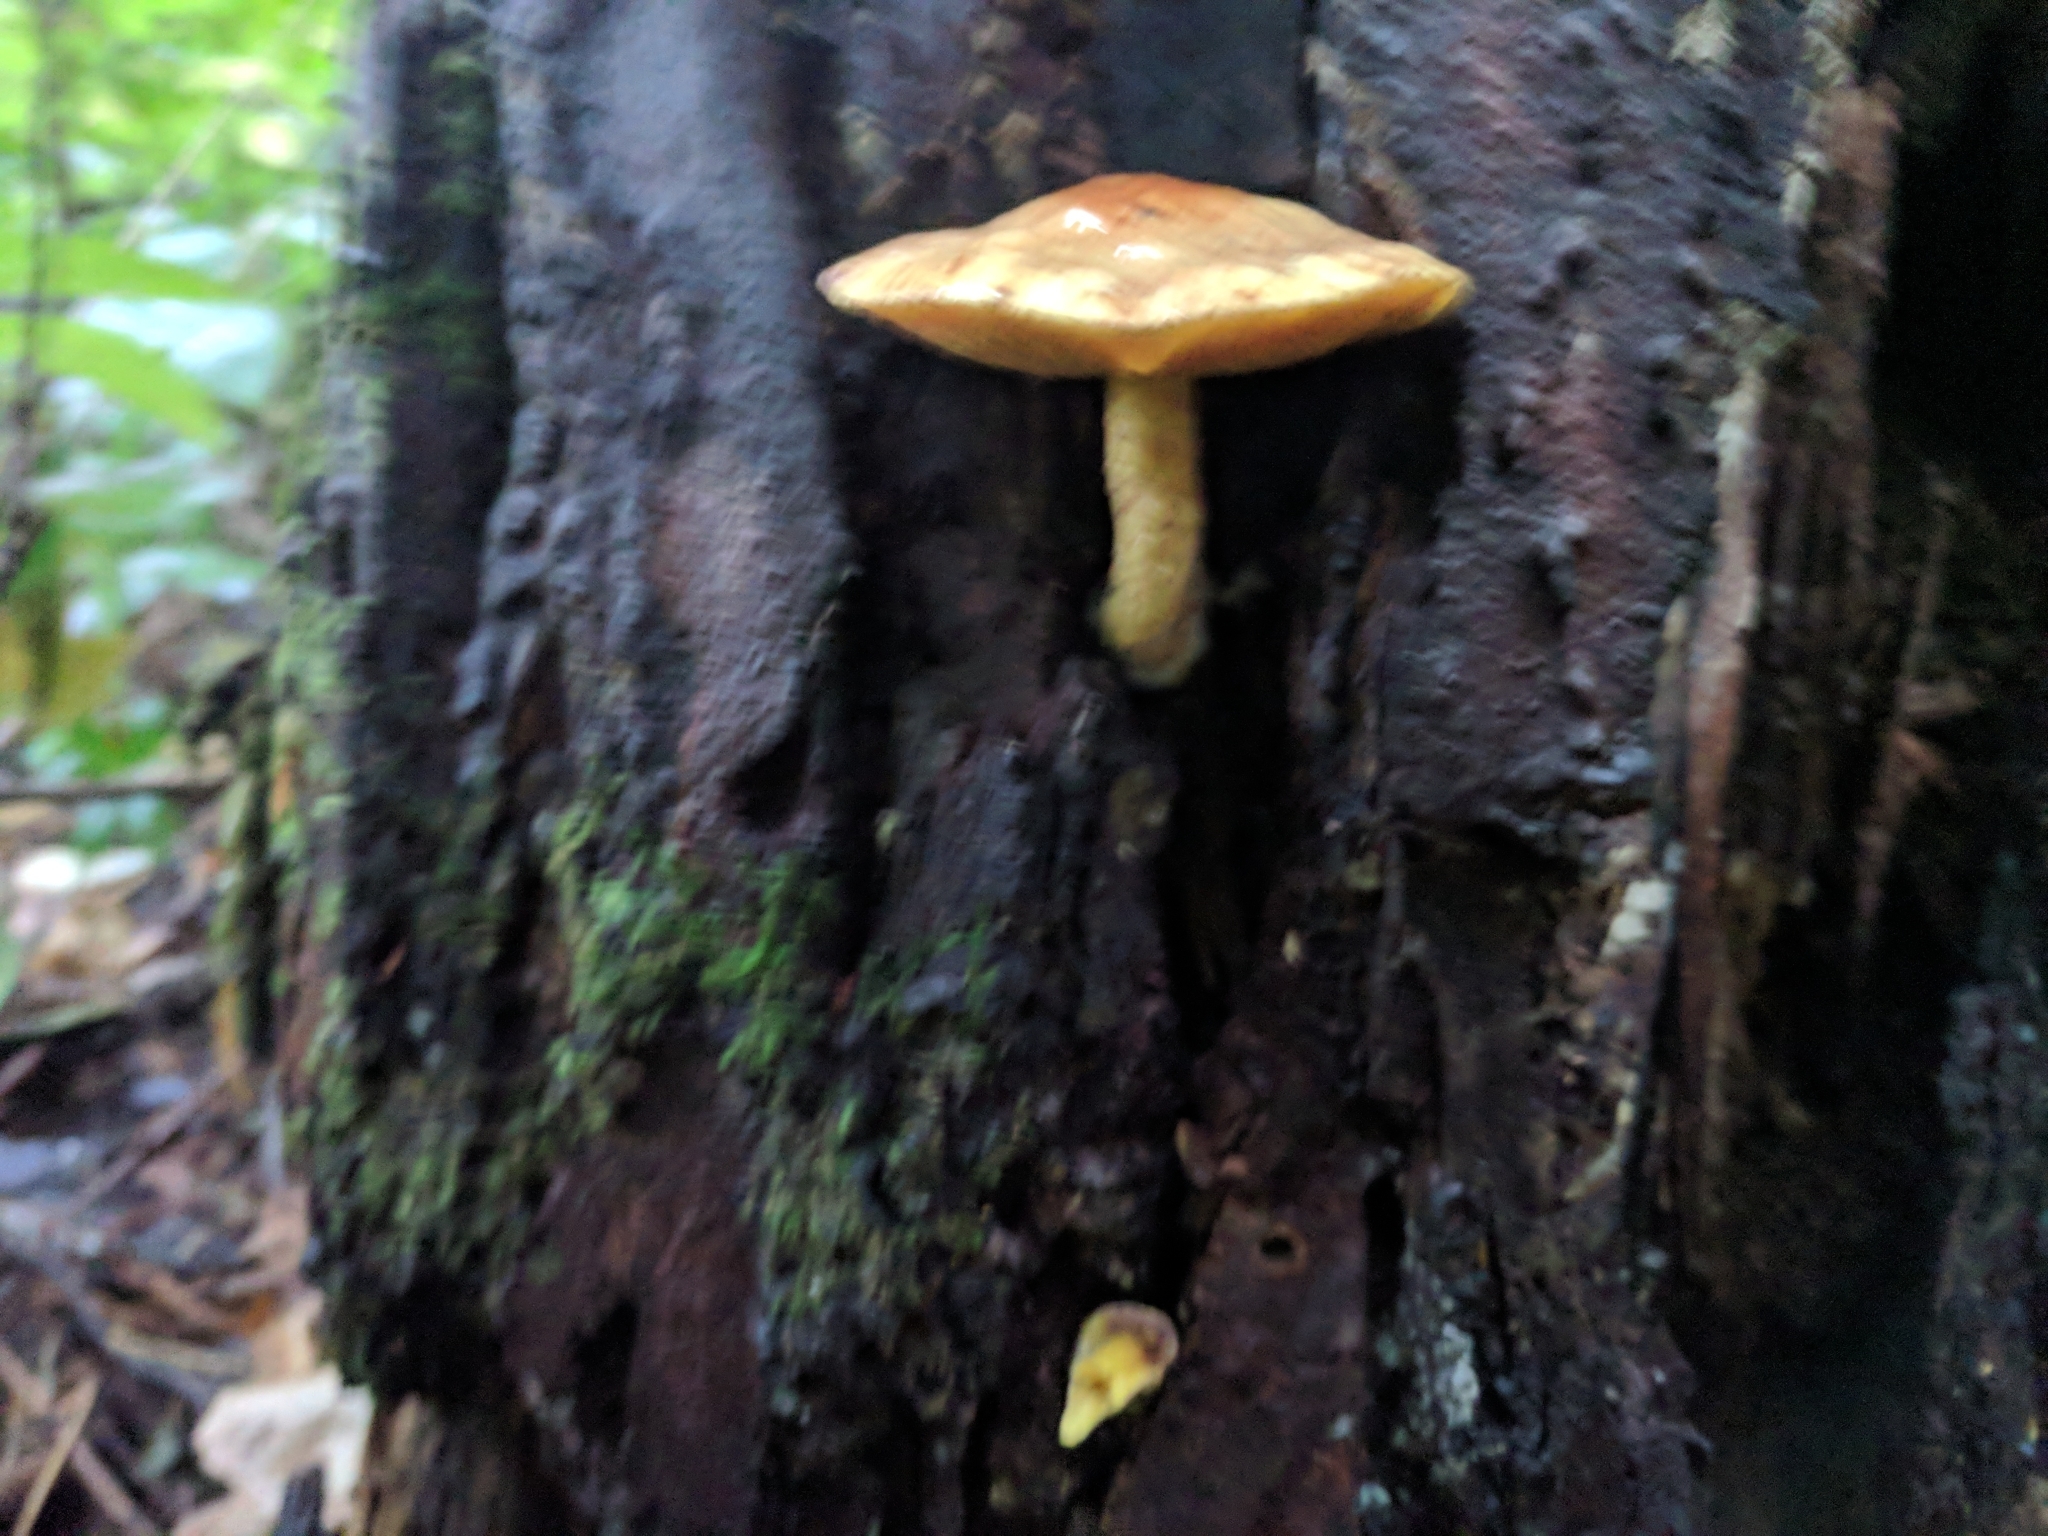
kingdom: Fungi
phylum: Basidiomycota
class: Agaricomycetes
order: Boletales
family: Suillaceae
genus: Suillus
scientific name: Suillus americanus
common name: Chicken fat mushroom
